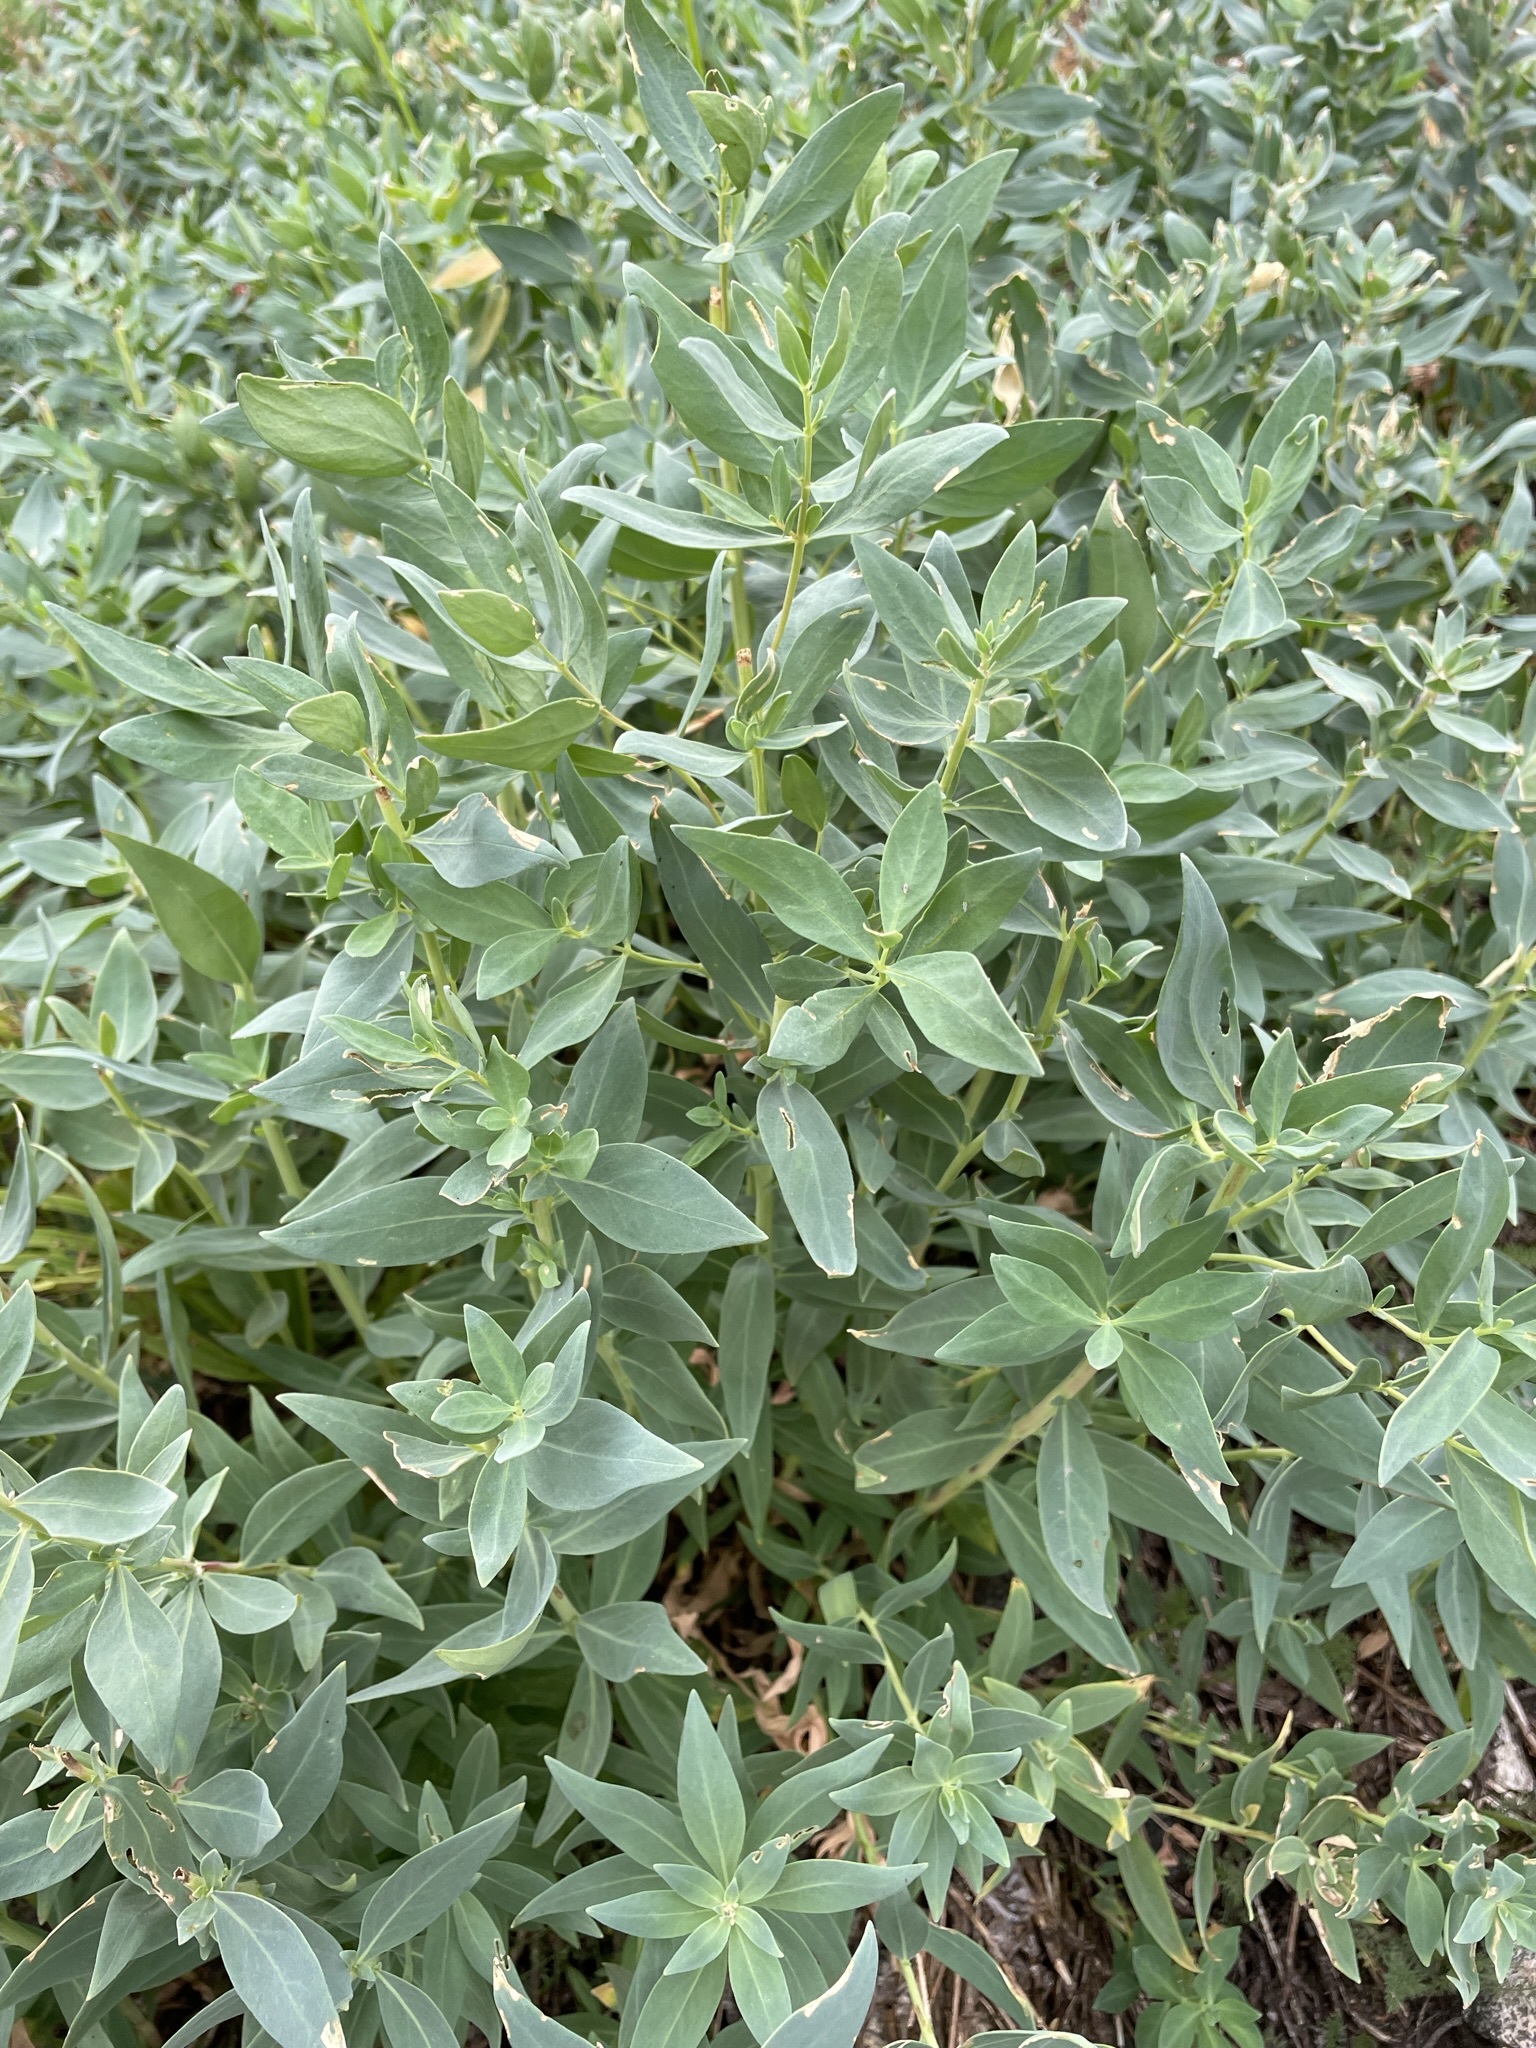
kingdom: Plantae
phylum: Tracheophyta
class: Magnoliopsida
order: Myrtales
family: Onagraceae
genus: Chamaenerion
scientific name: Chamaenerion latifolium
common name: Dwarf fireweed
